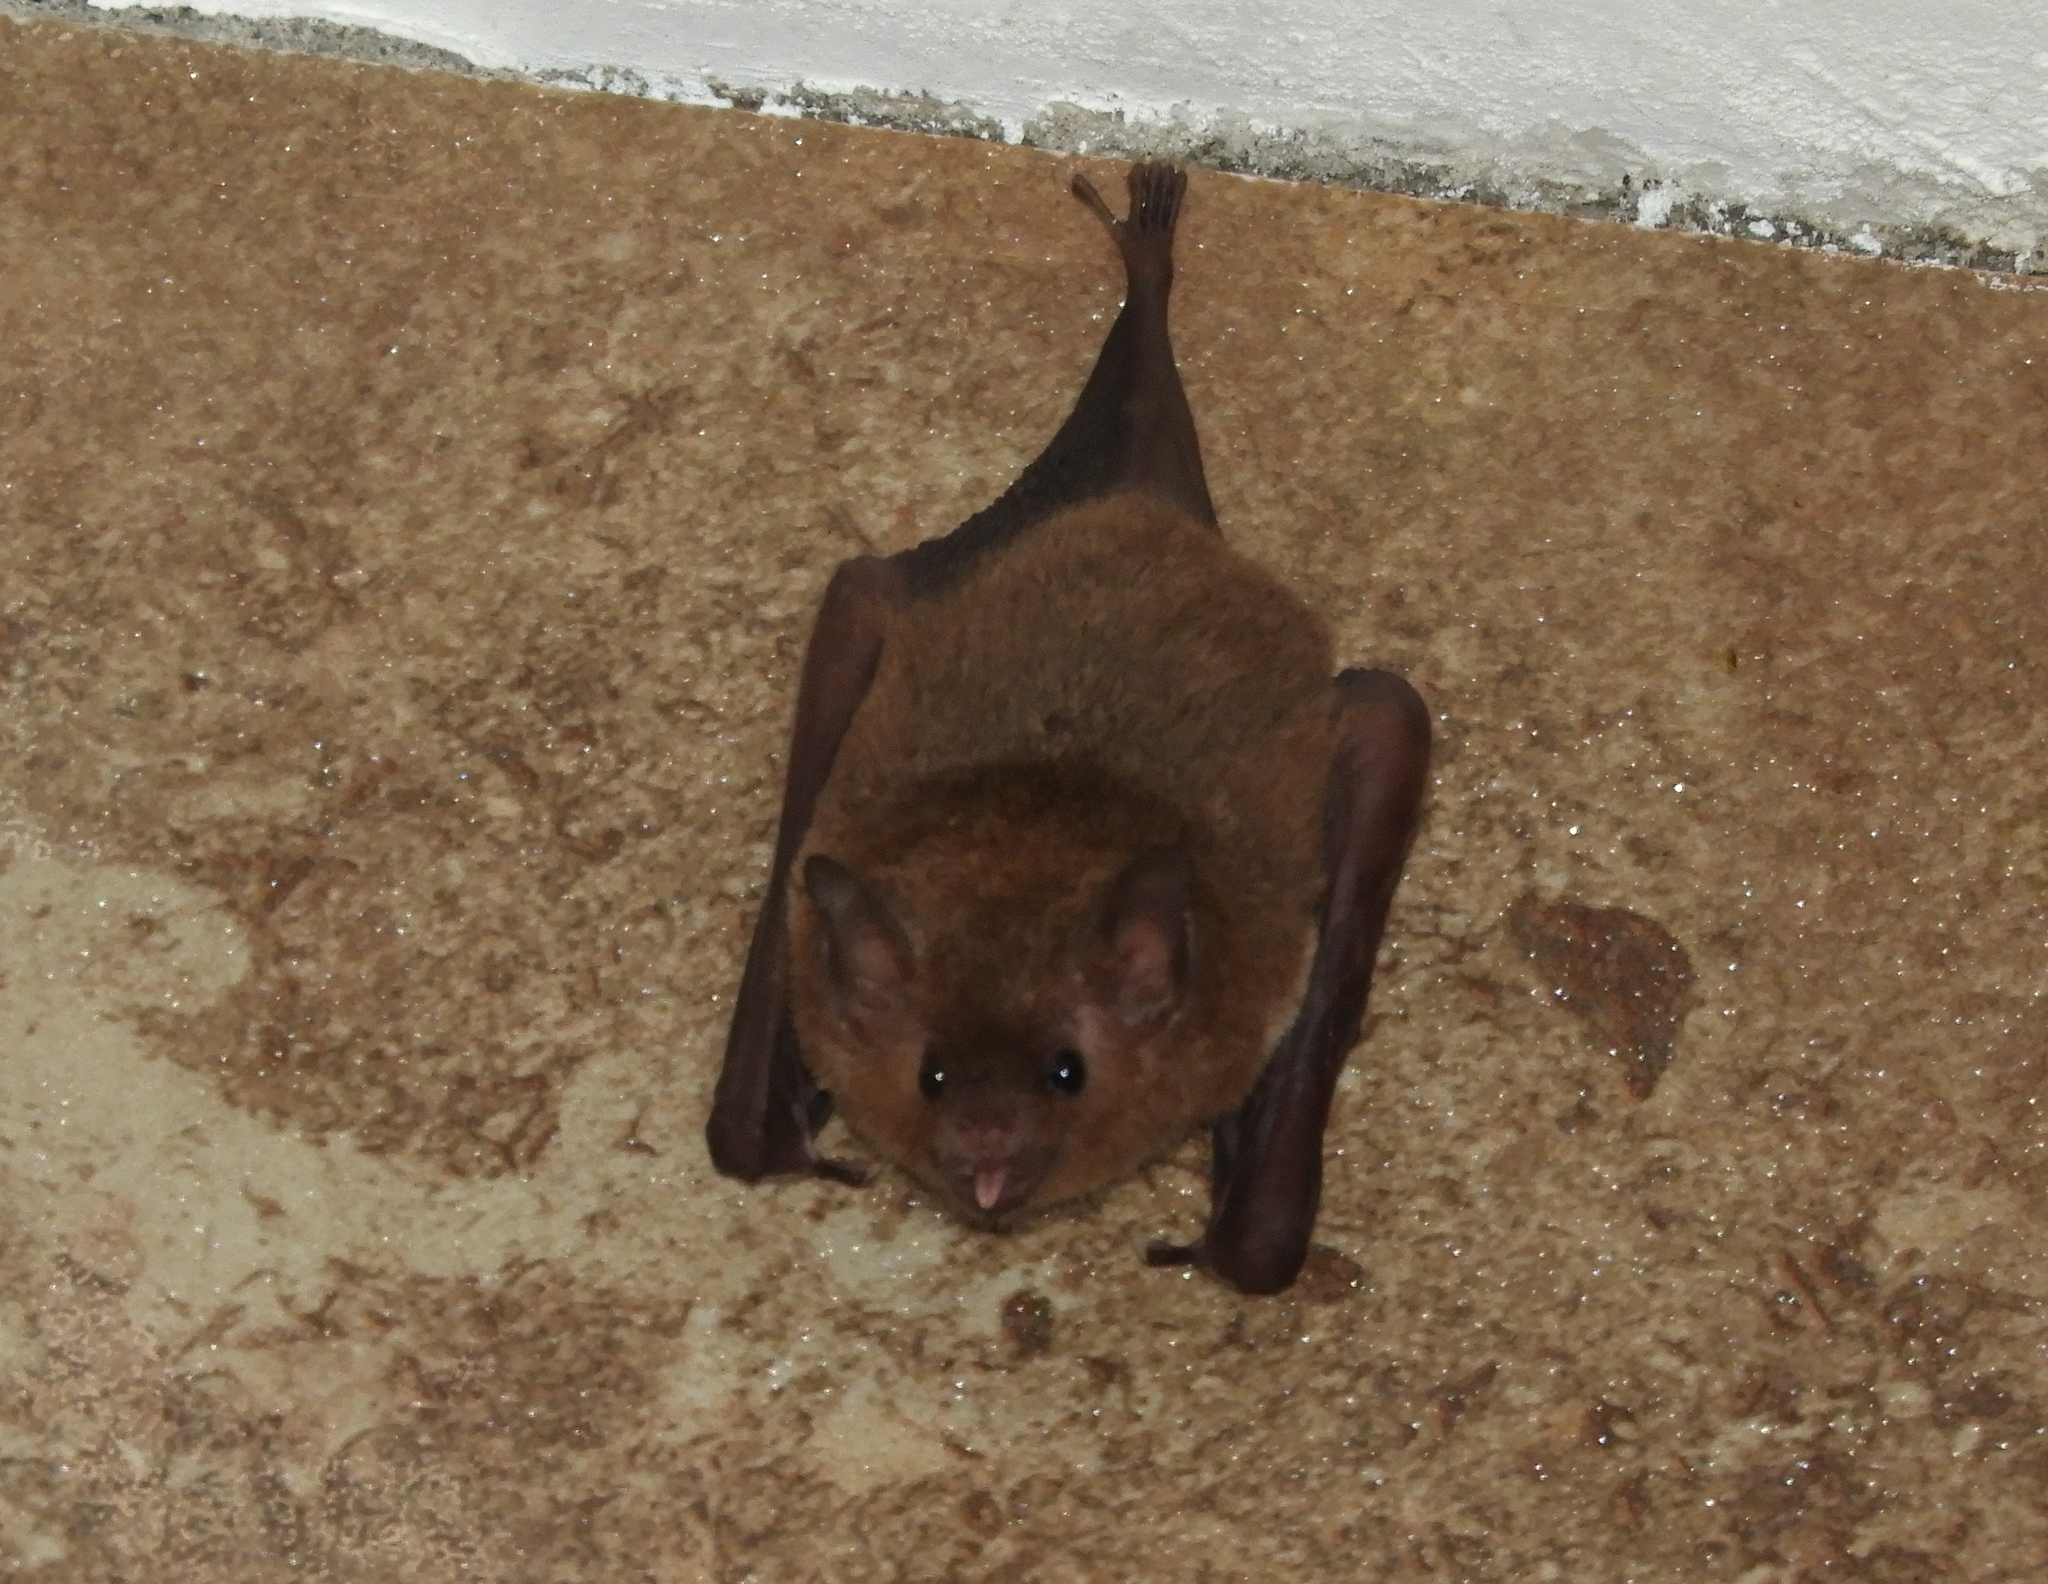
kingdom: Animalia
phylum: Chordata
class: Mammalia
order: Chiroptera
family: Phyllostomidae
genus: Glossophaga
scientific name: Glossophaga soricina
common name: Pallas's long-tongued bat
